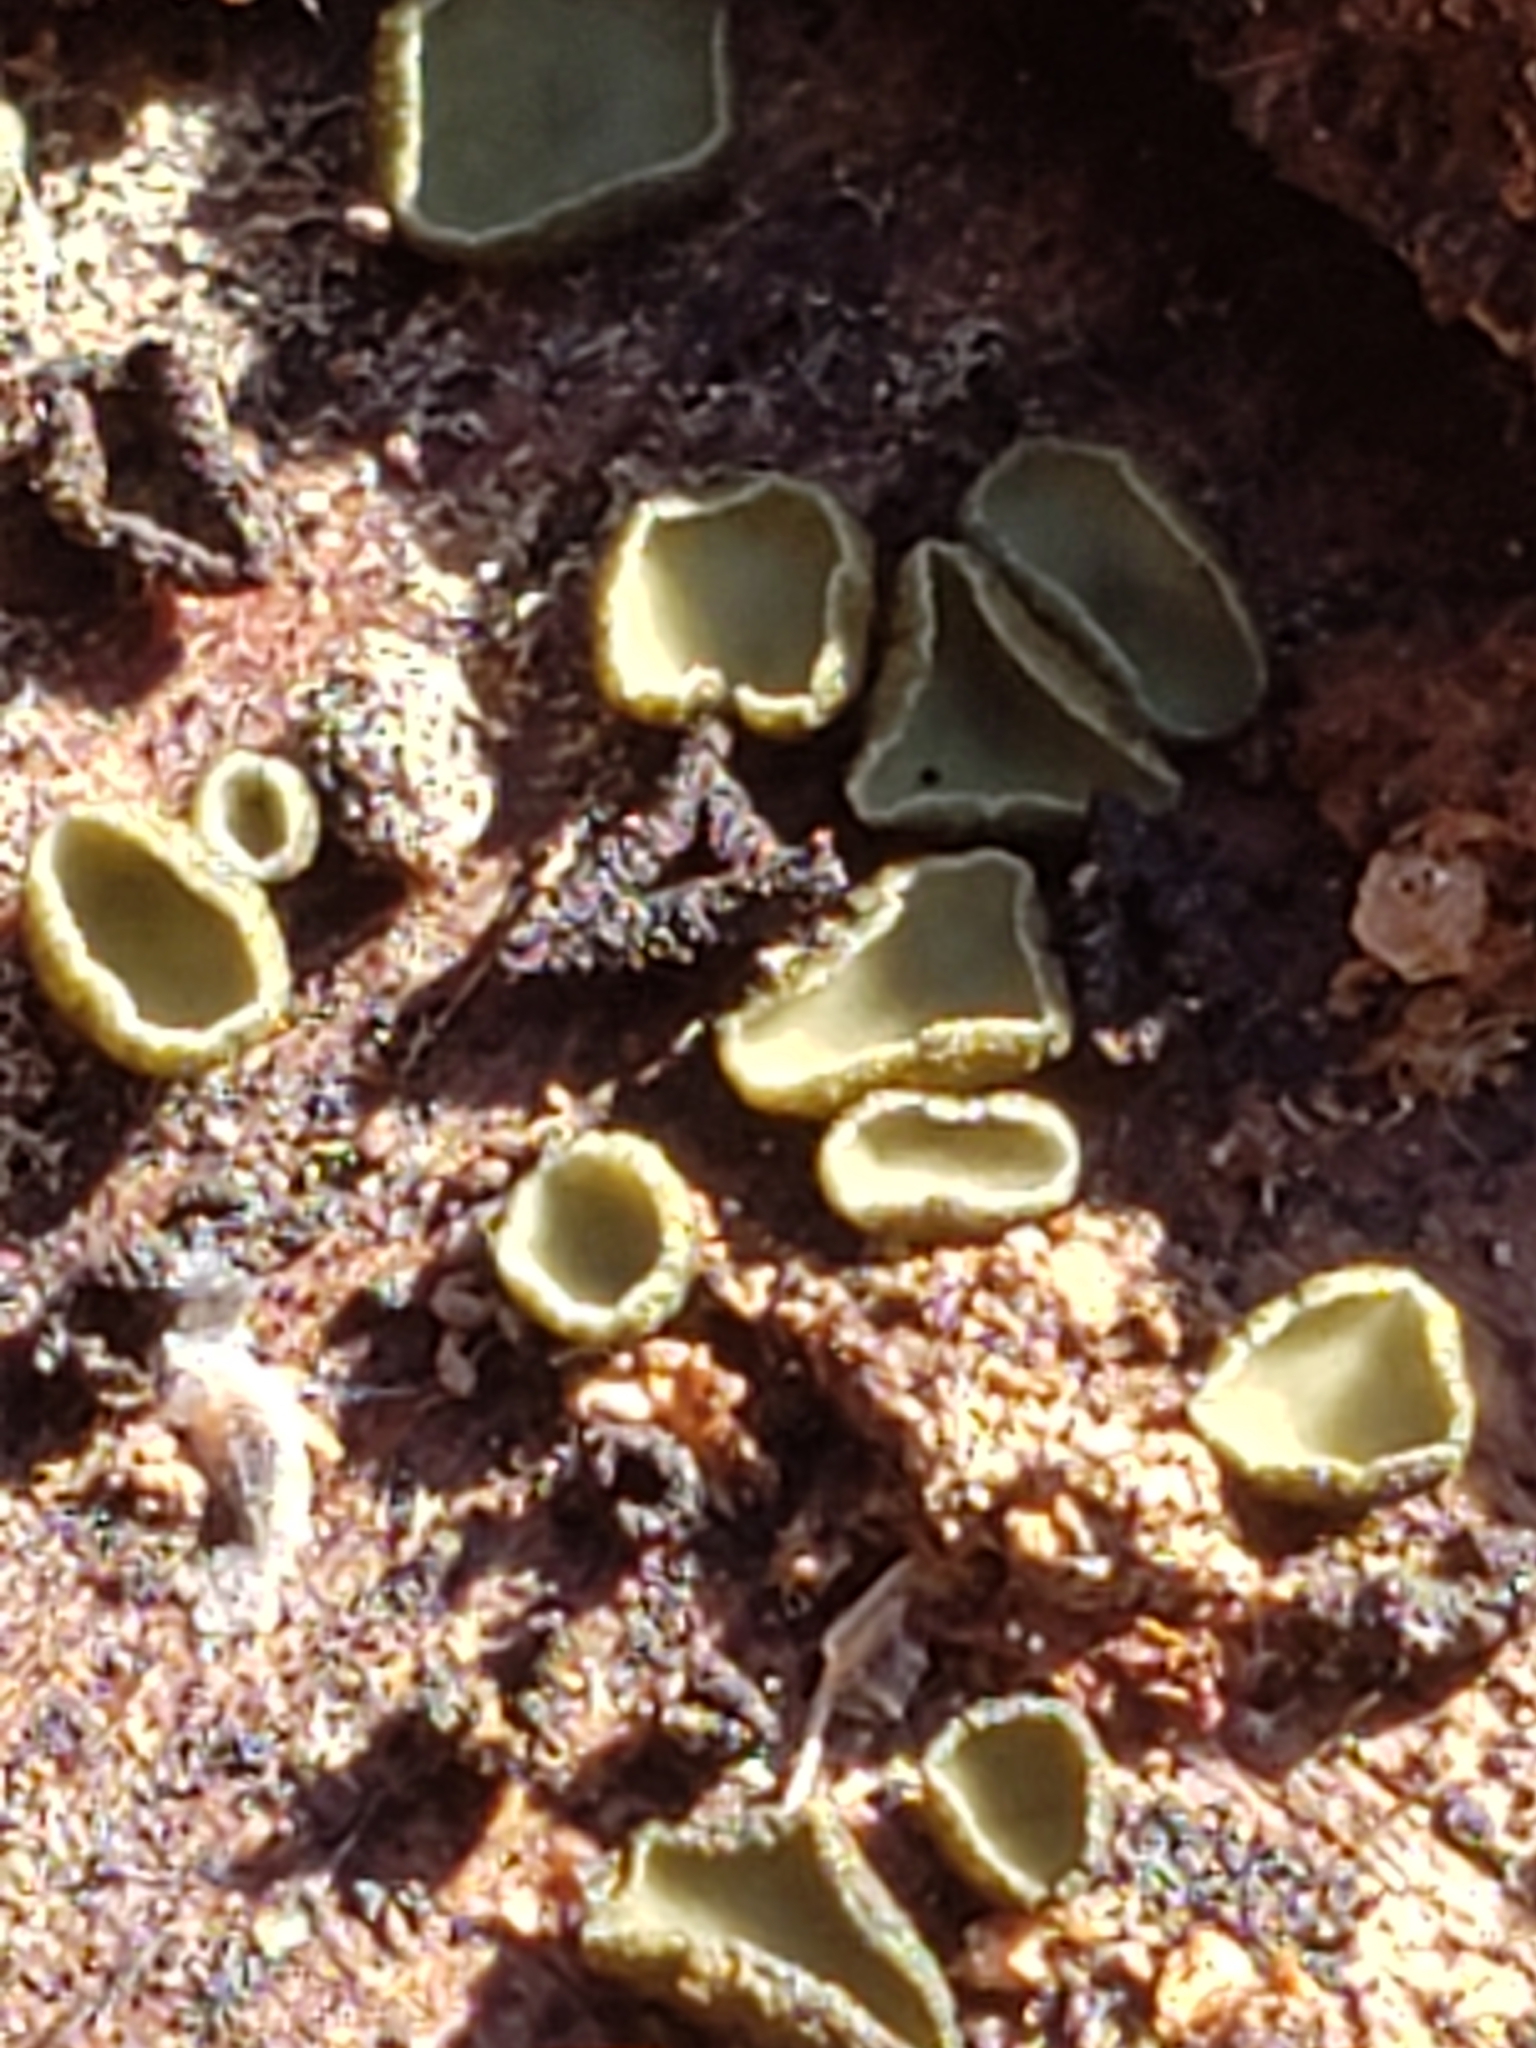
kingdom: Fungi
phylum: Ascomycota
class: Leotiomycetes
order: Helotiales
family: Chlorospleniaceae
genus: Chlorosplenium
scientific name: Chlorosplenium chlora
